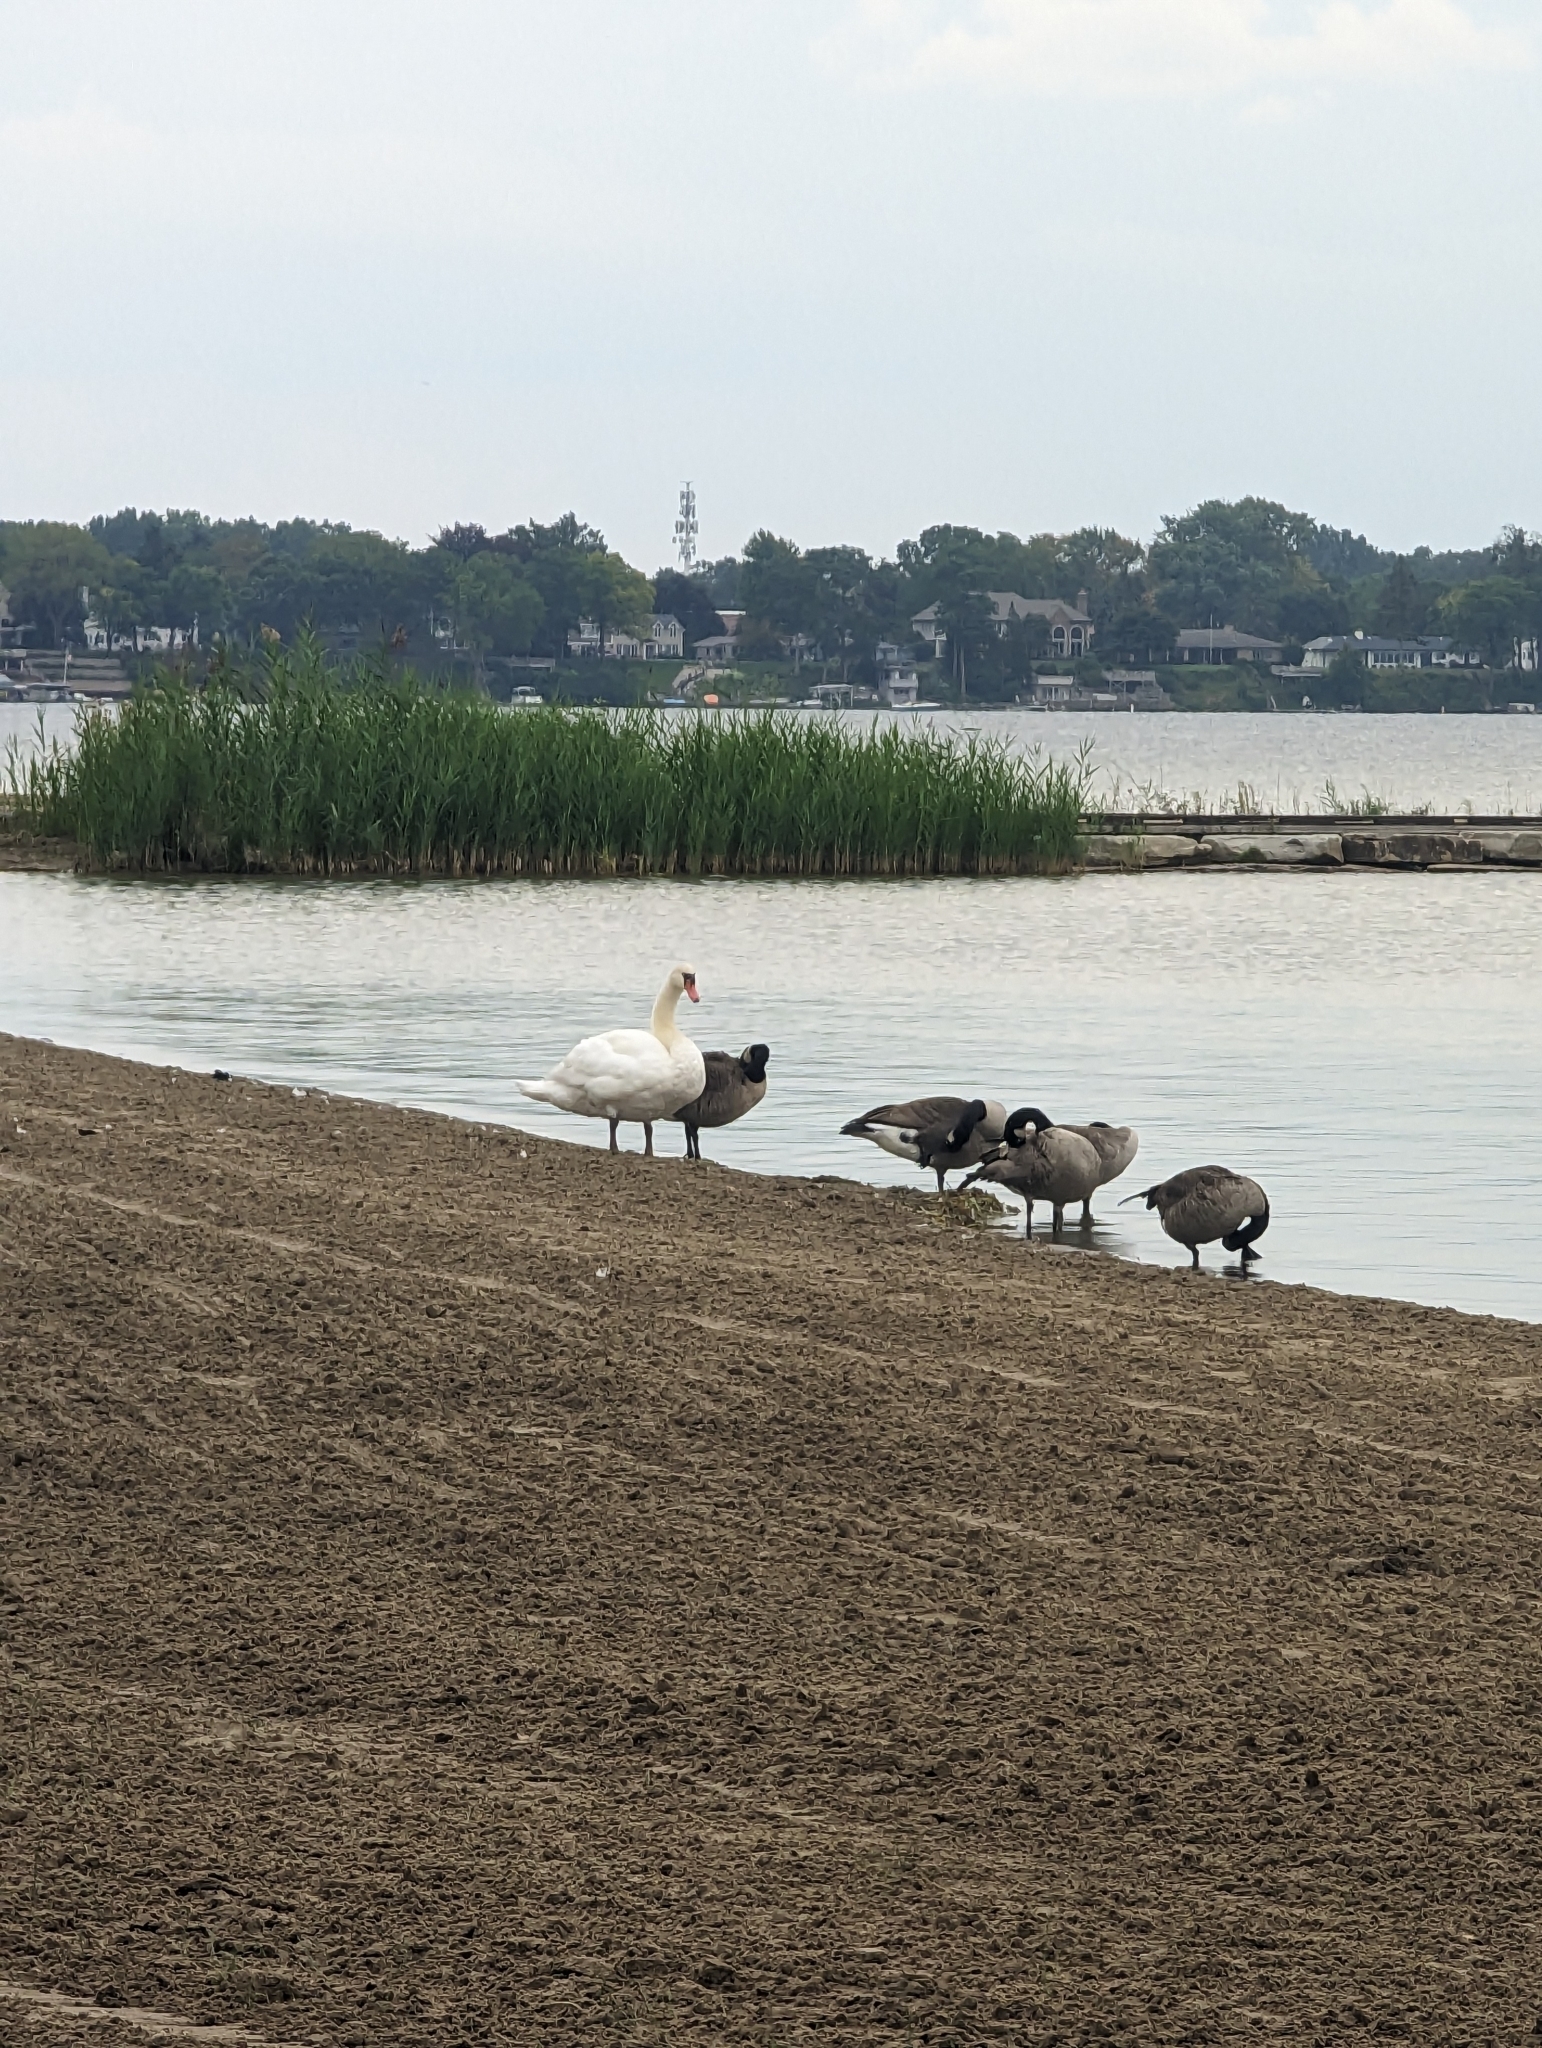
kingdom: Animalia
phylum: Chordata
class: Aves
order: Anseriformes
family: Anatidae
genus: Cygnus
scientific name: Cygnus olor
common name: Mute swan
